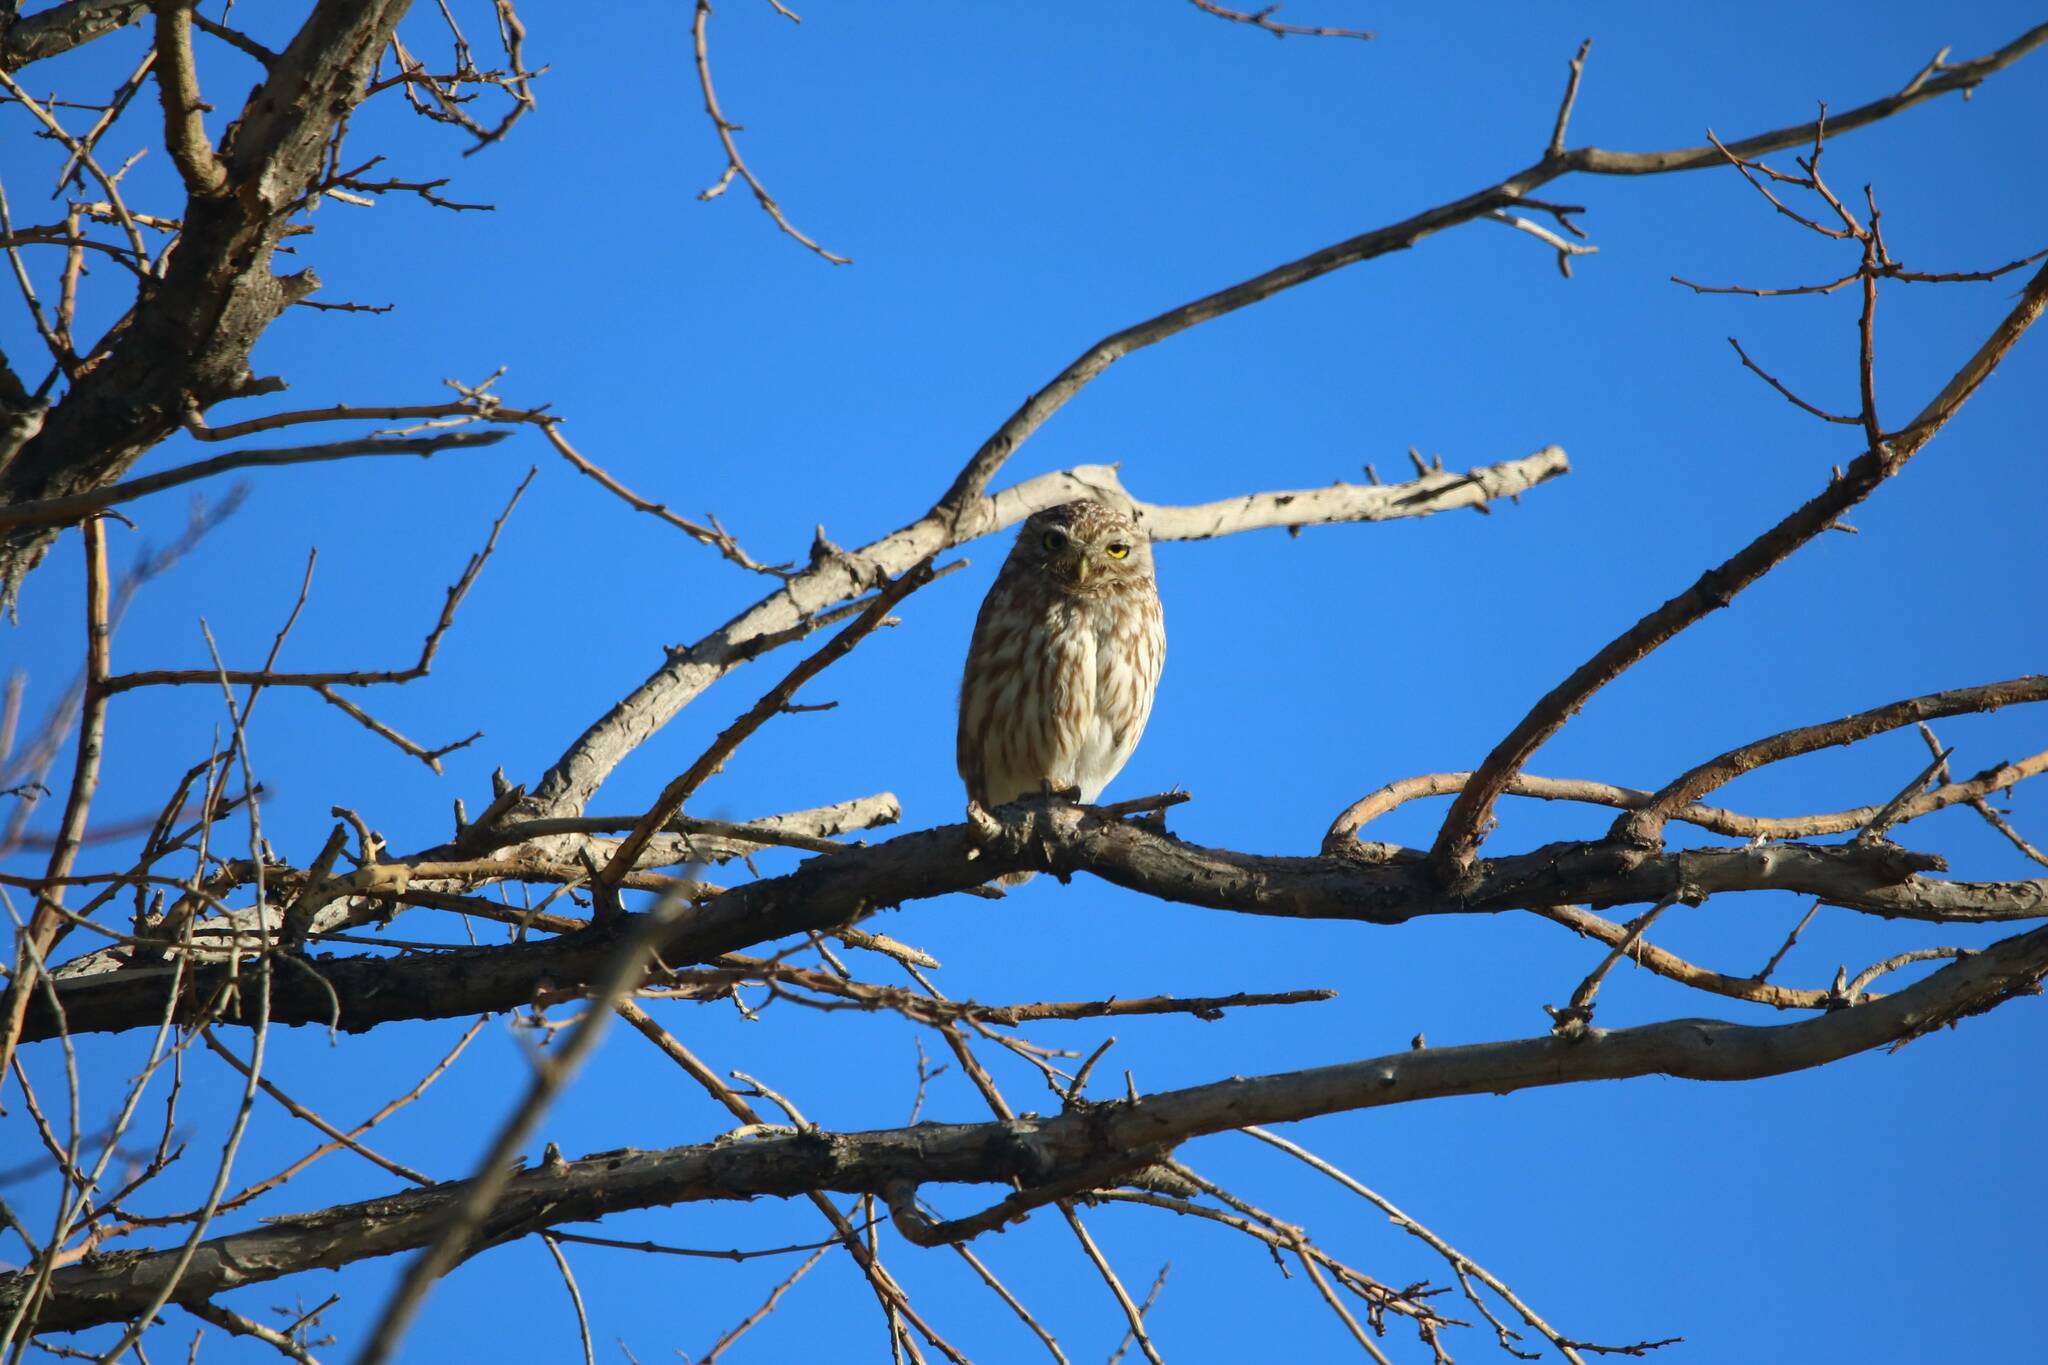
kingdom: Animalia
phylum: Chordata
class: Aves
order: Strigiformes
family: Strigidae
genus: Athene
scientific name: Athene noctua
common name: Little owl
